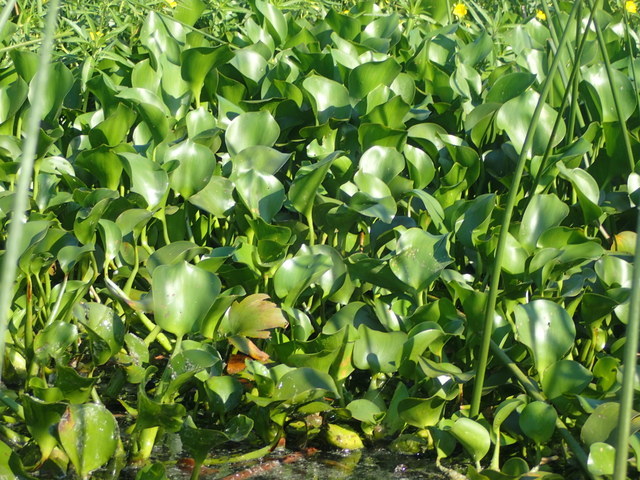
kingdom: Plantae
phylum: Tracheophyta
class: Liliopsida
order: Commelinales
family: Pontederiaceae
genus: Pontederia
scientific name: Pontederia crassipes
